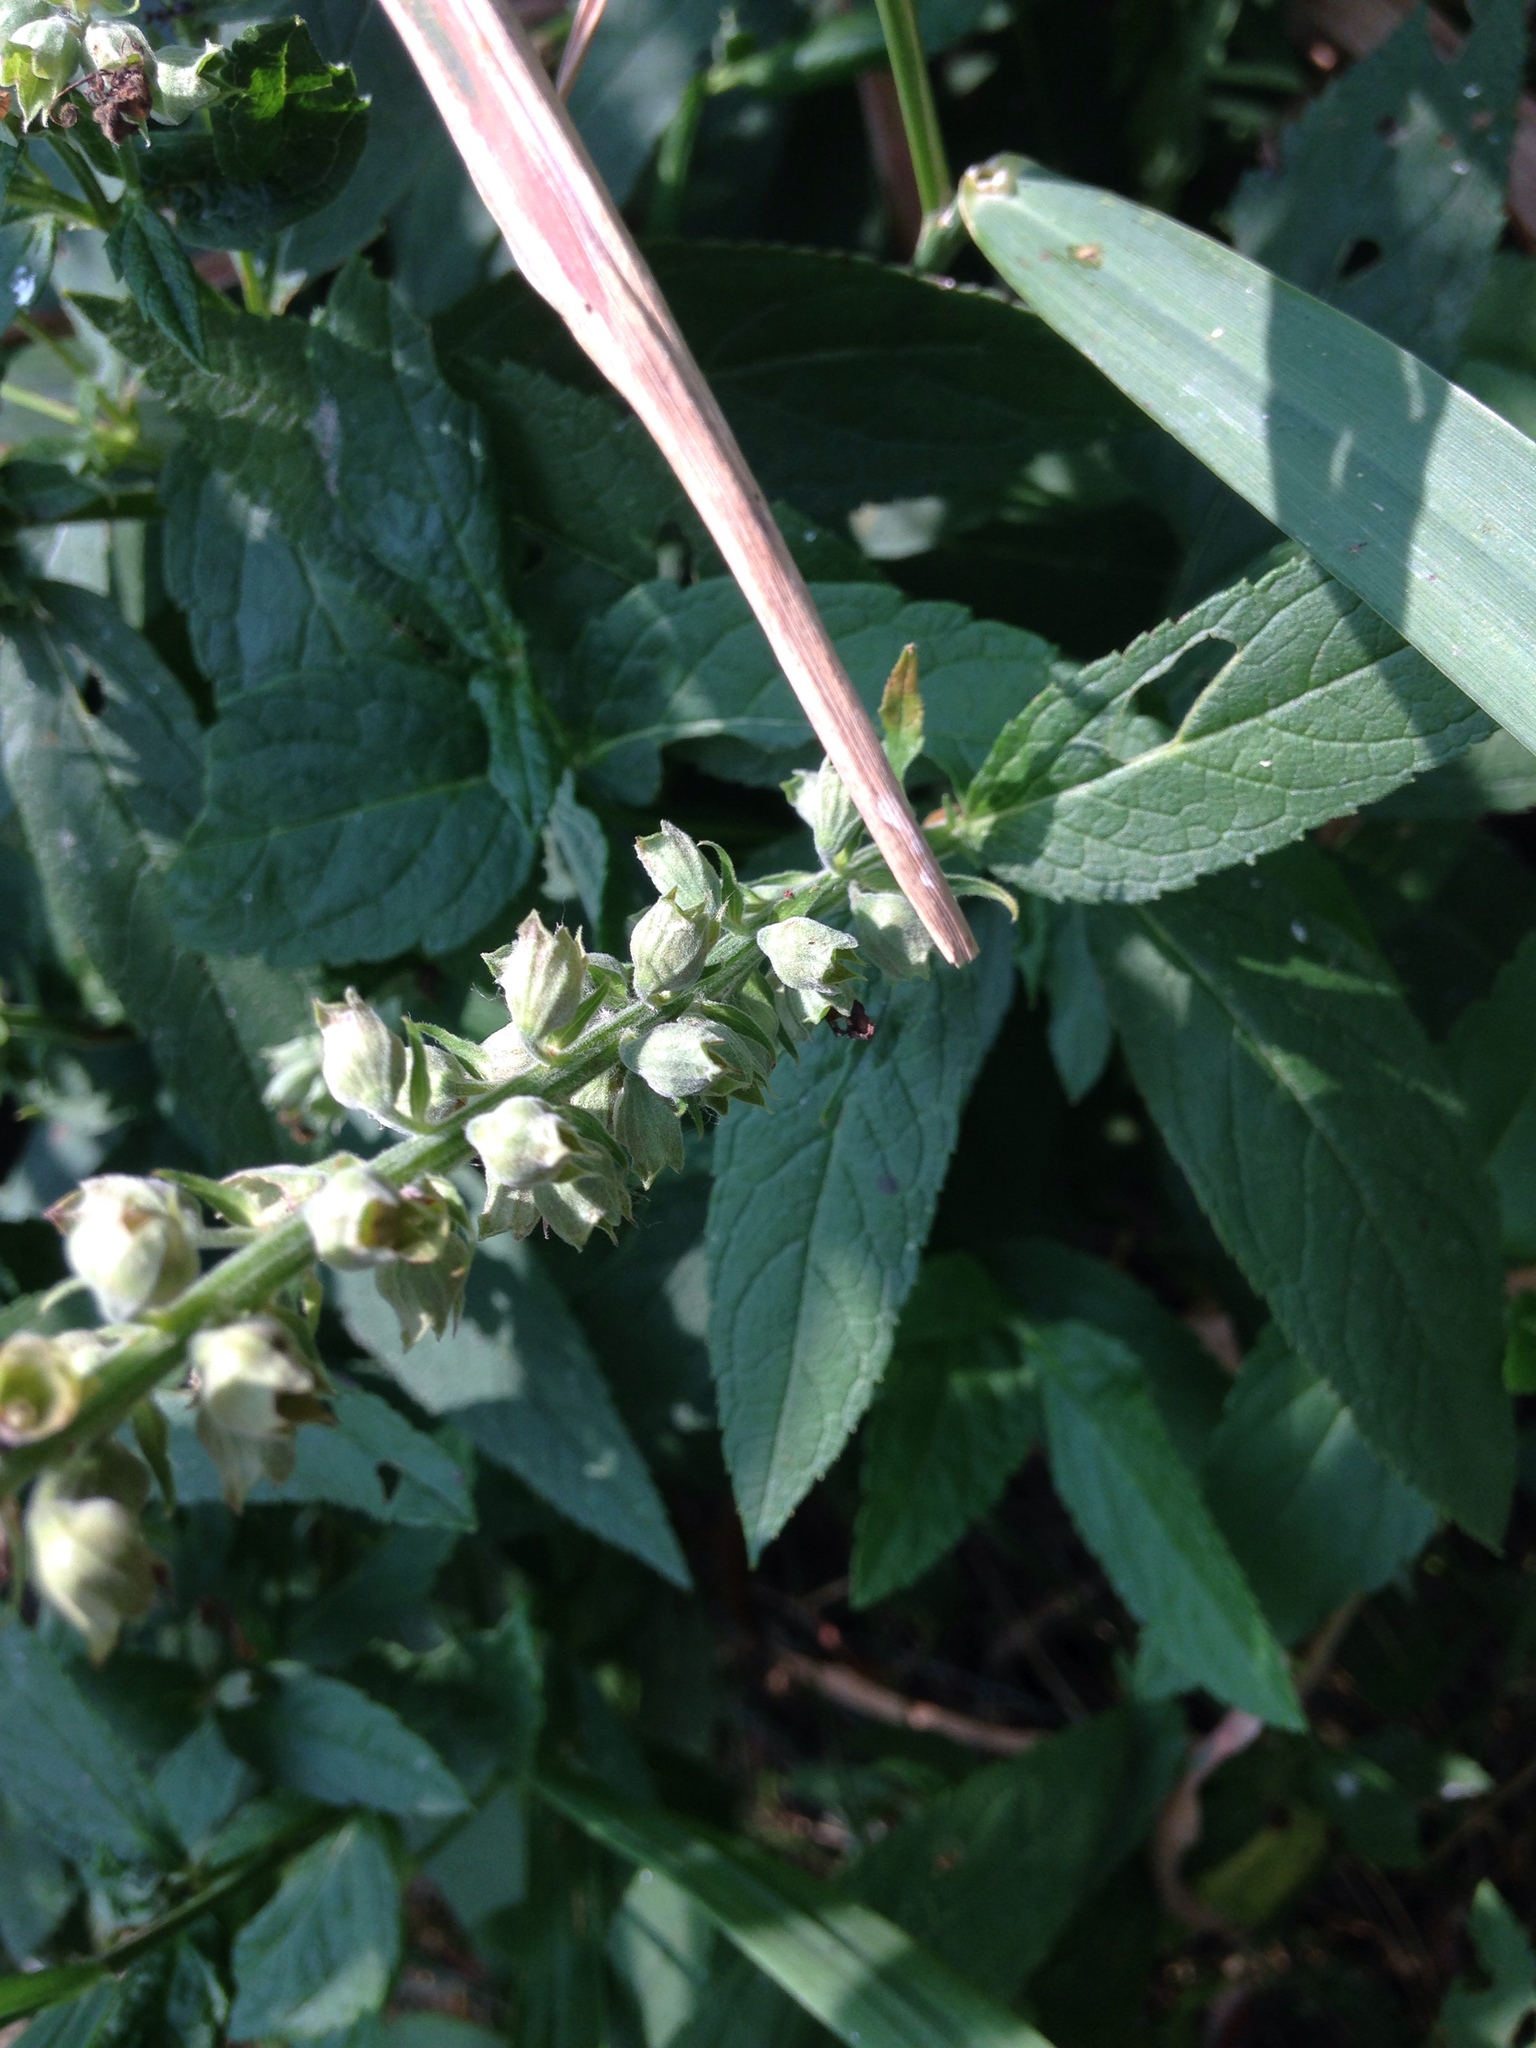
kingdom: Plantae
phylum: Tracheophyta
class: Magnoliopsida
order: Lamiales
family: Lamiaceae
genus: Teucrium
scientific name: Teucrium canadense
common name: American germander
